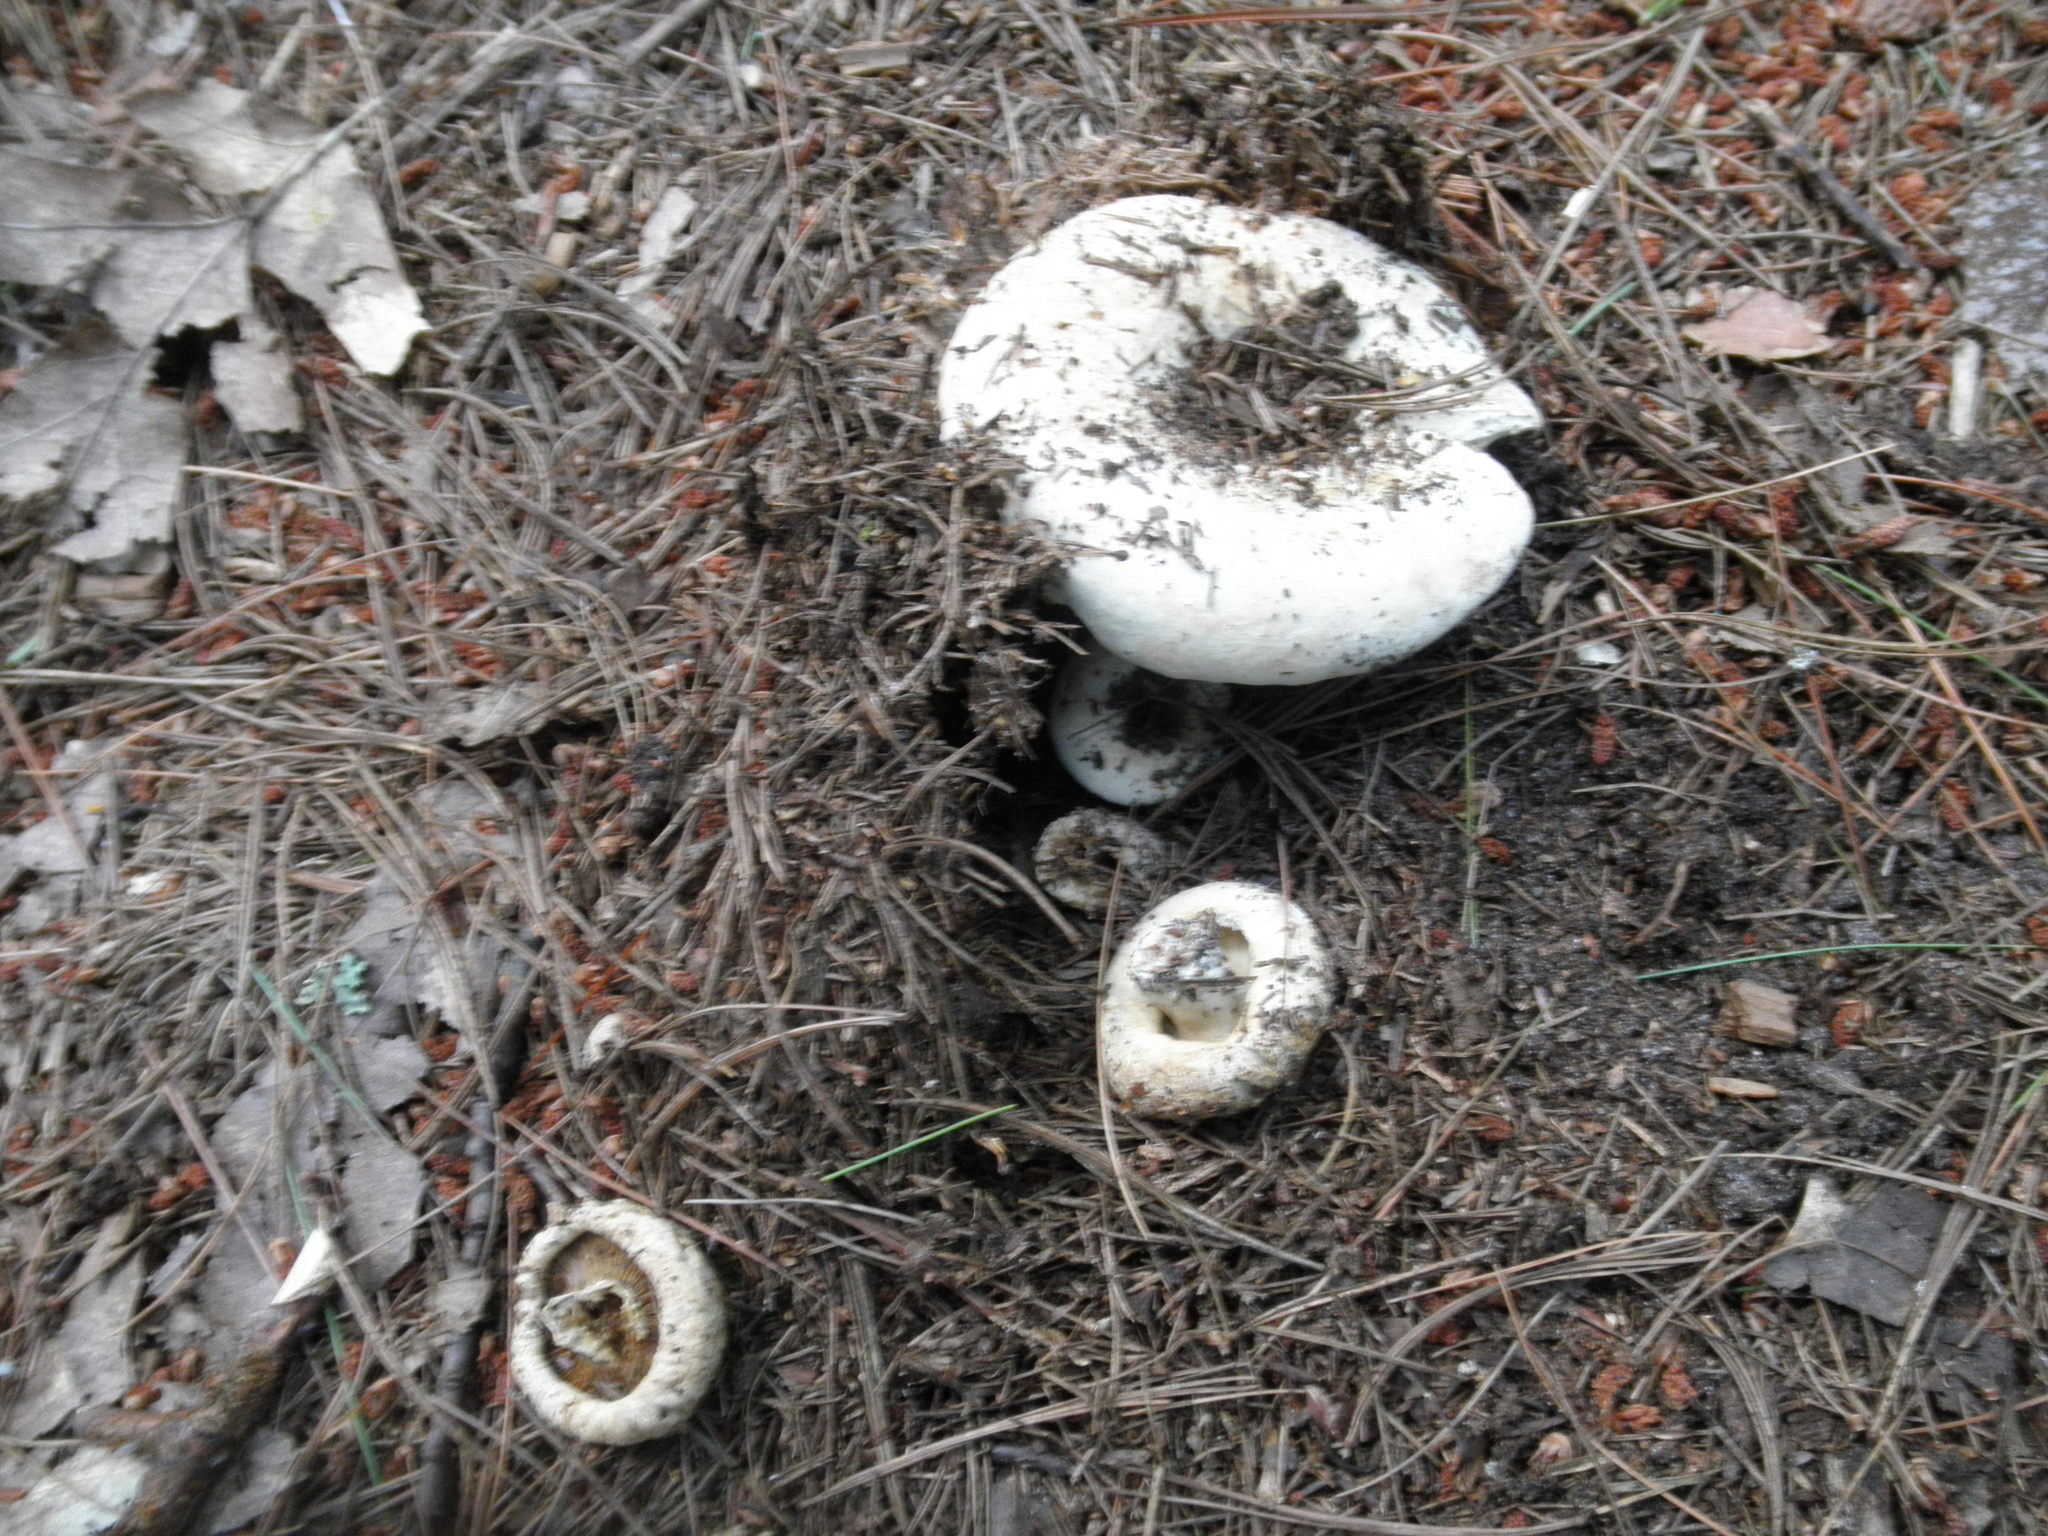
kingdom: Fungi
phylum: Basidiomycota
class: Agaricomycetes
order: Russulales
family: Russulaceae
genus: Lactifluus
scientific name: Lactifluus
